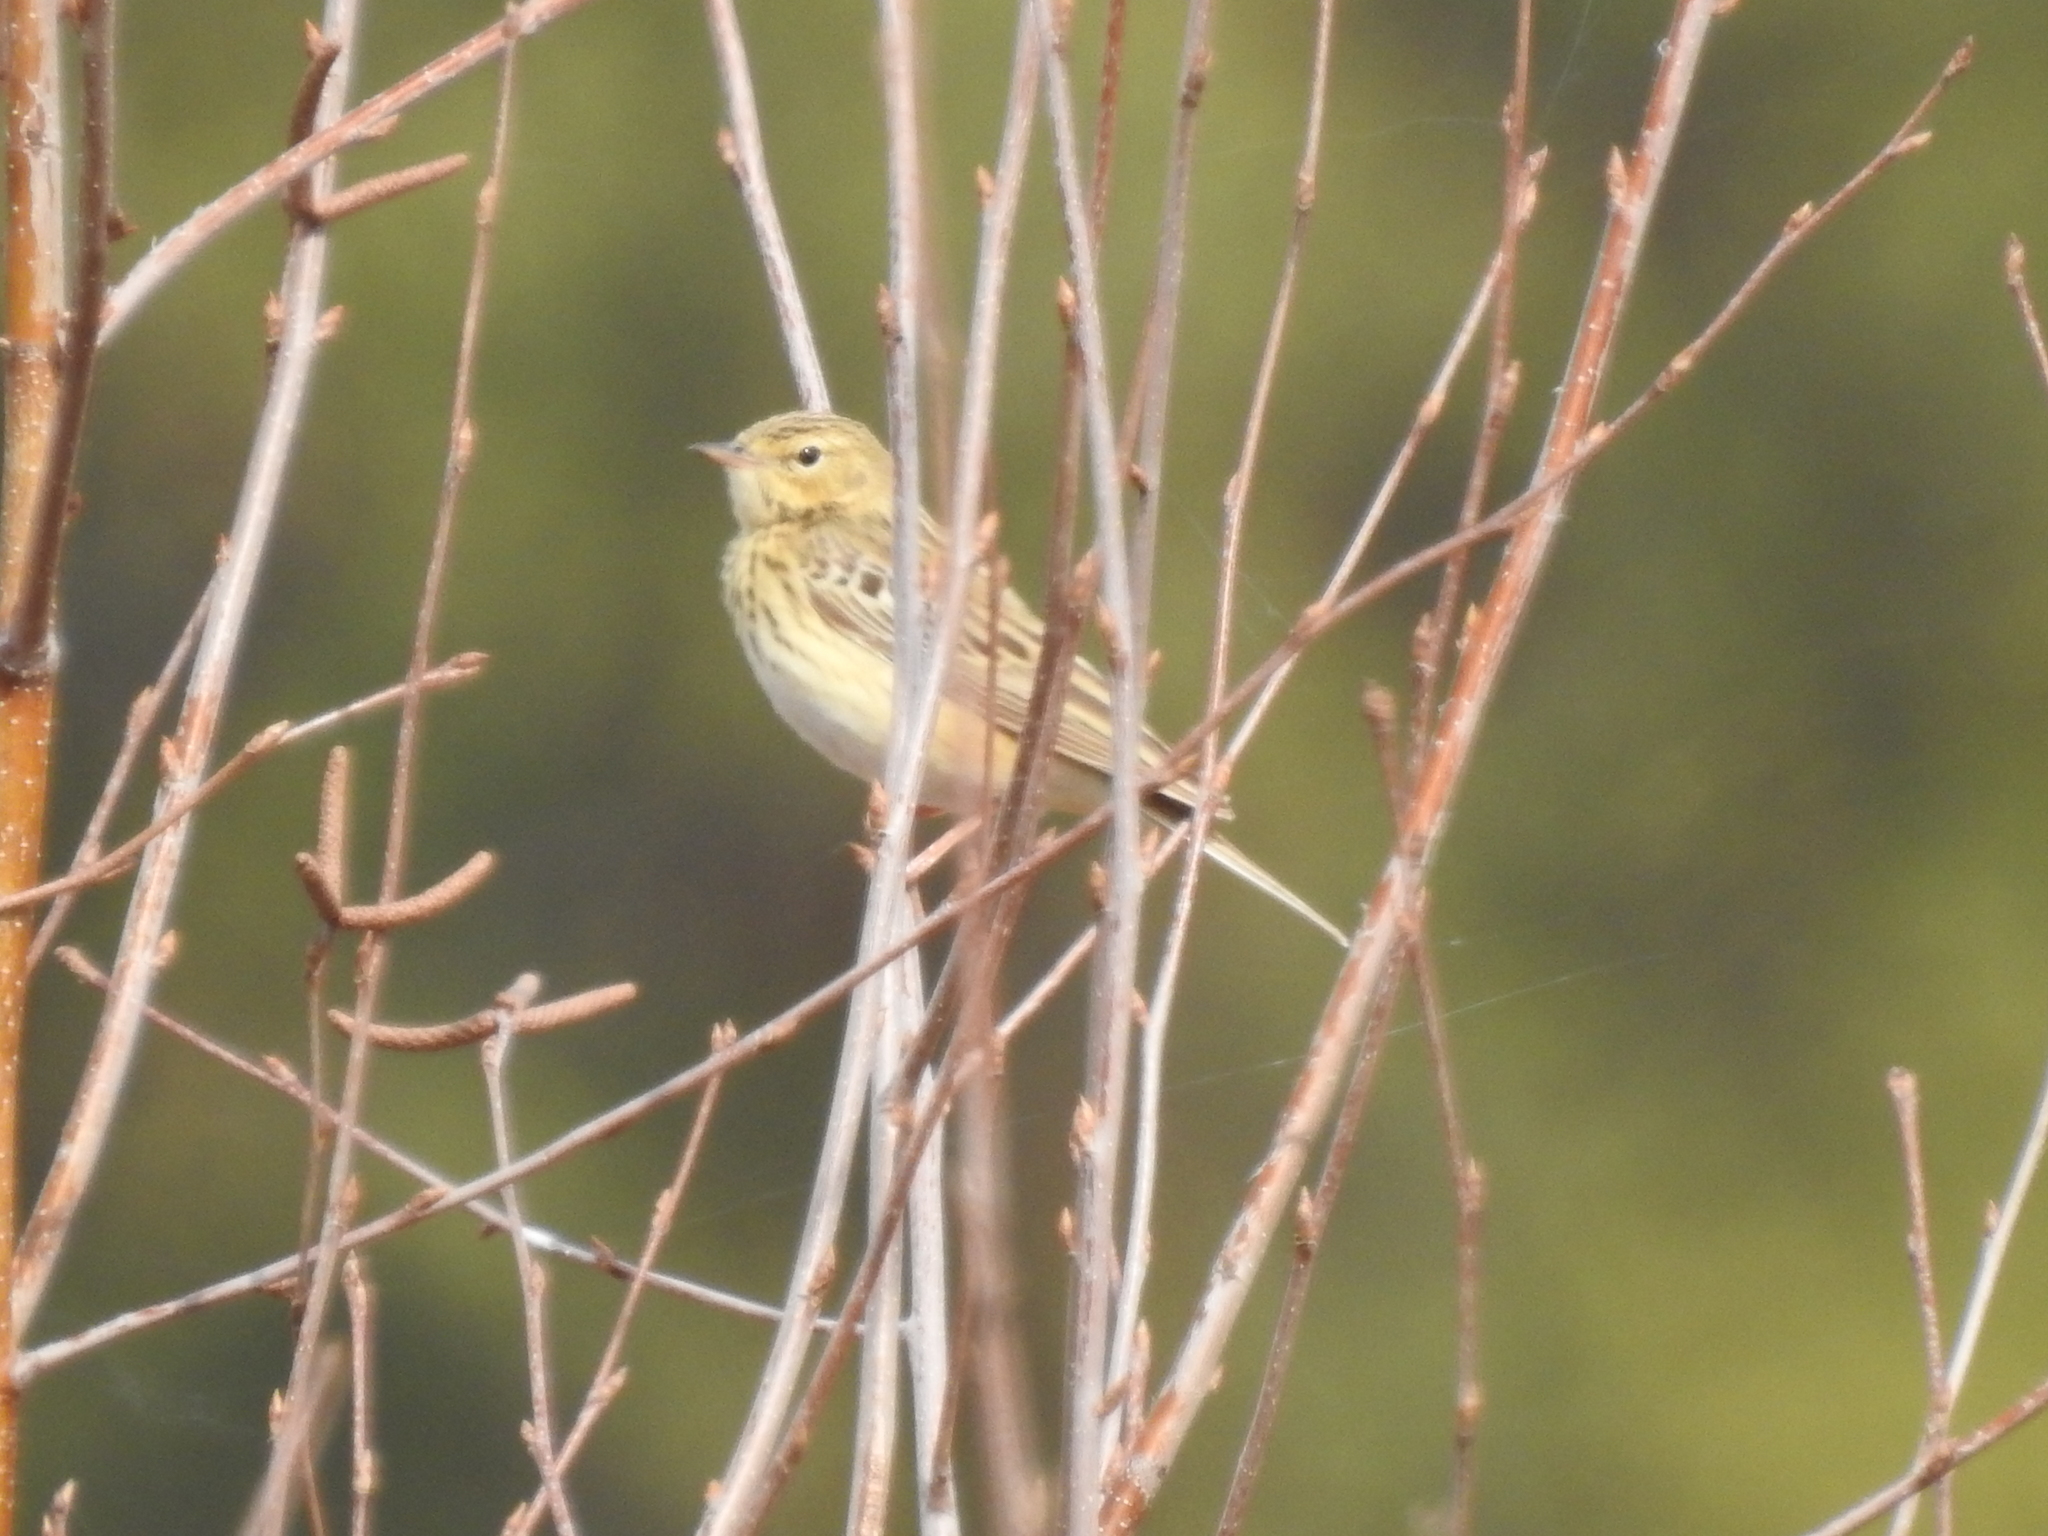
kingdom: Animalia
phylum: Chordata
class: Aves
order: Passeriformes
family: Motacillidae
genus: Anthus
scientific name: Anthus trivialis
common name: Tree pipit
